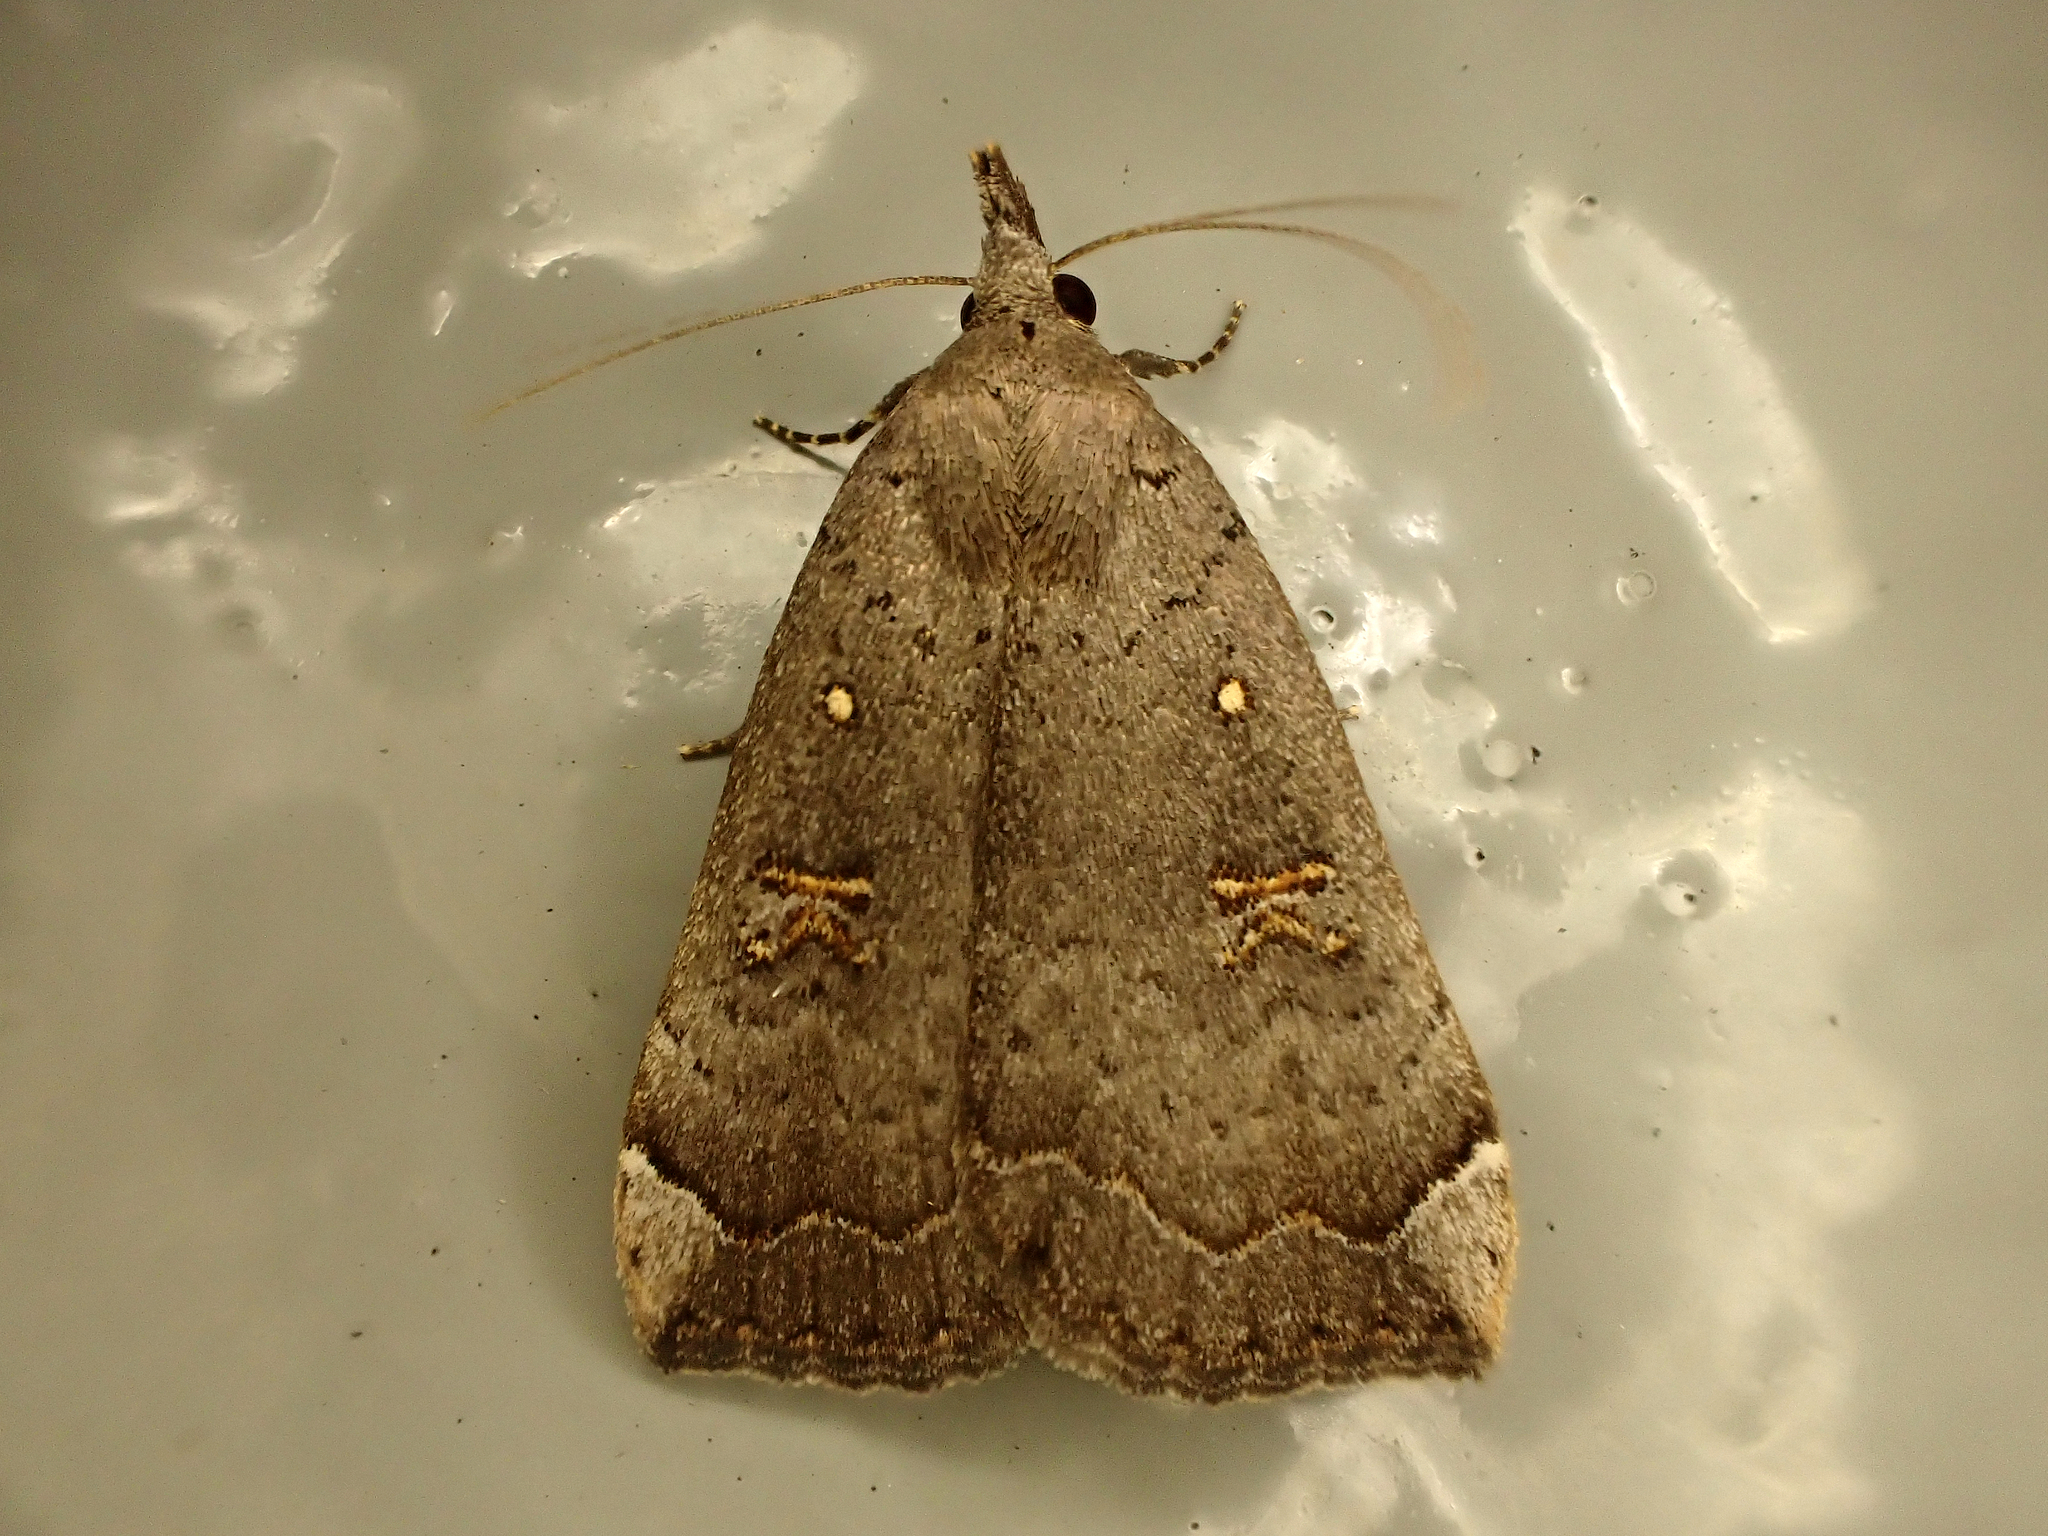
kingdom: Animalia
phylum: Arthropoda
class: Insecta
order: Lepidoptera
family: Erebidae
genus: Rhapsa
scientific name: Rhapsa scotosialis
